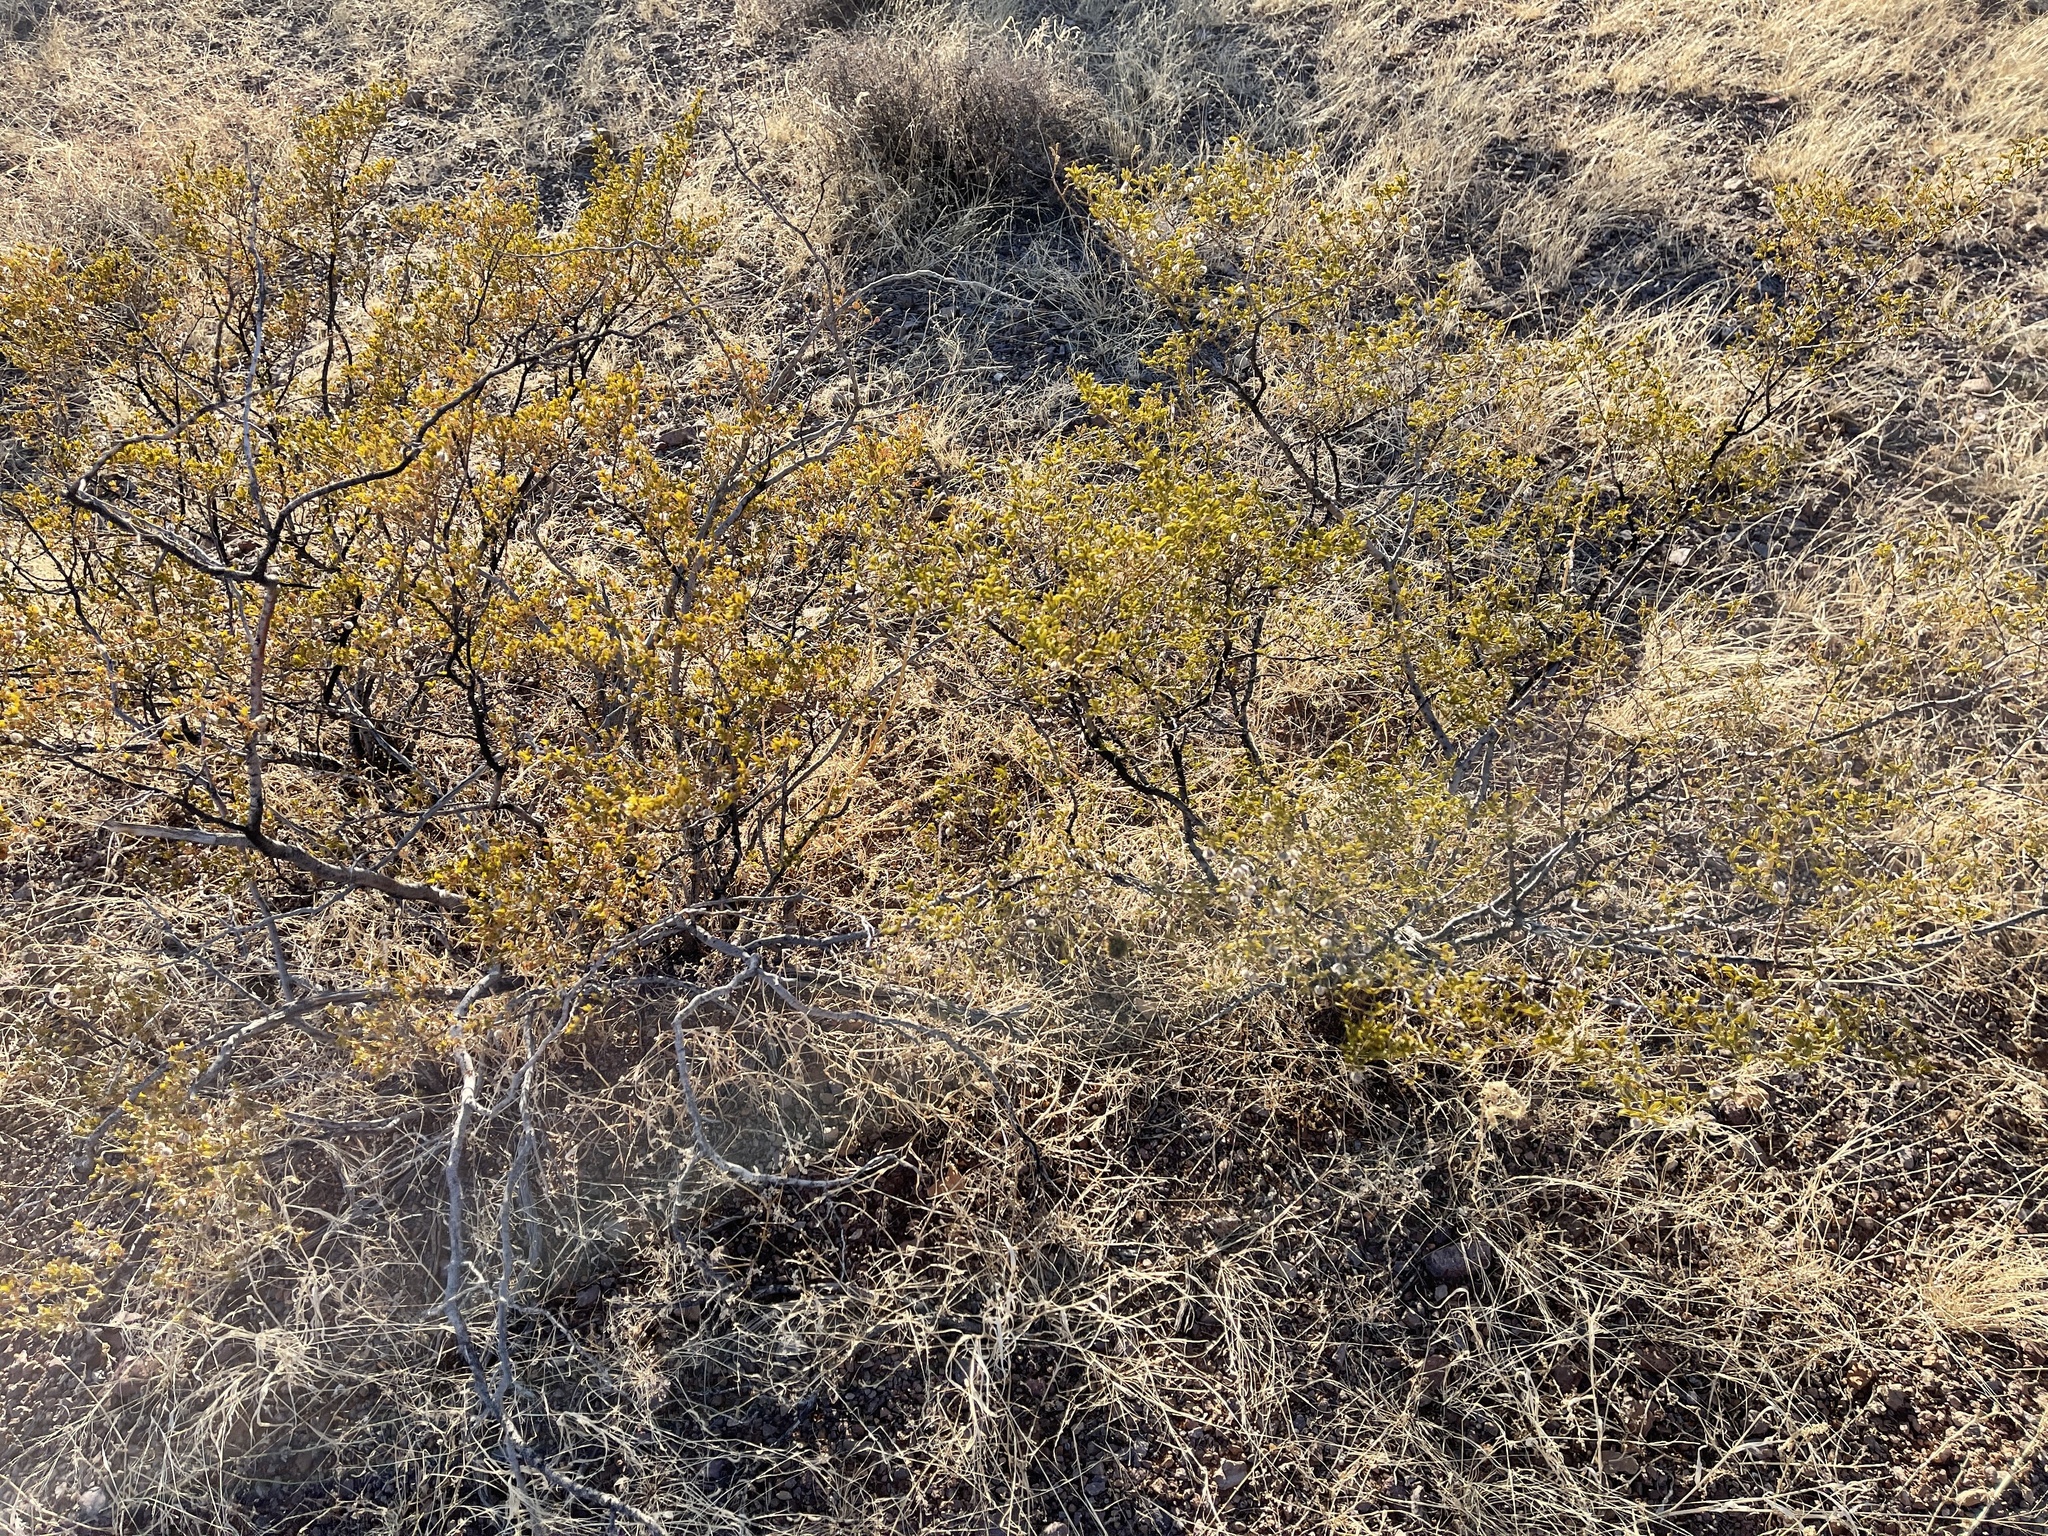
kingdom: Plantae
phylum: Tracheophyta
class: Magnoliopsida
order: Zygophyllales
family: Zygophyllaceae
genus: Larrea
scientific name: Larrea tridentata
